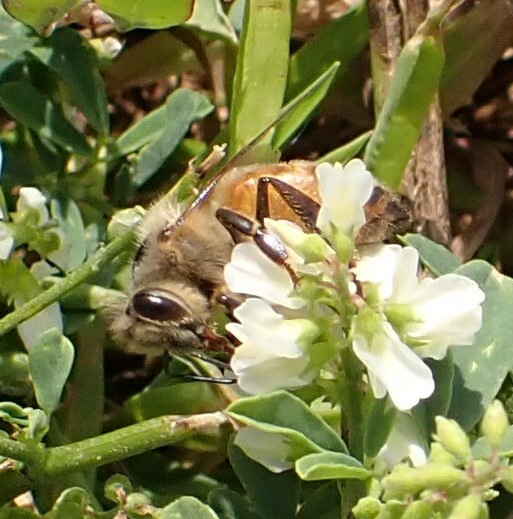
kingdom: Animalia
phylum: Arthropoda
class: Insecta
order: Hymenoptera
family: Apidae
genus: Apis
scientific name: Apis mellifera
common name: Honey bee
